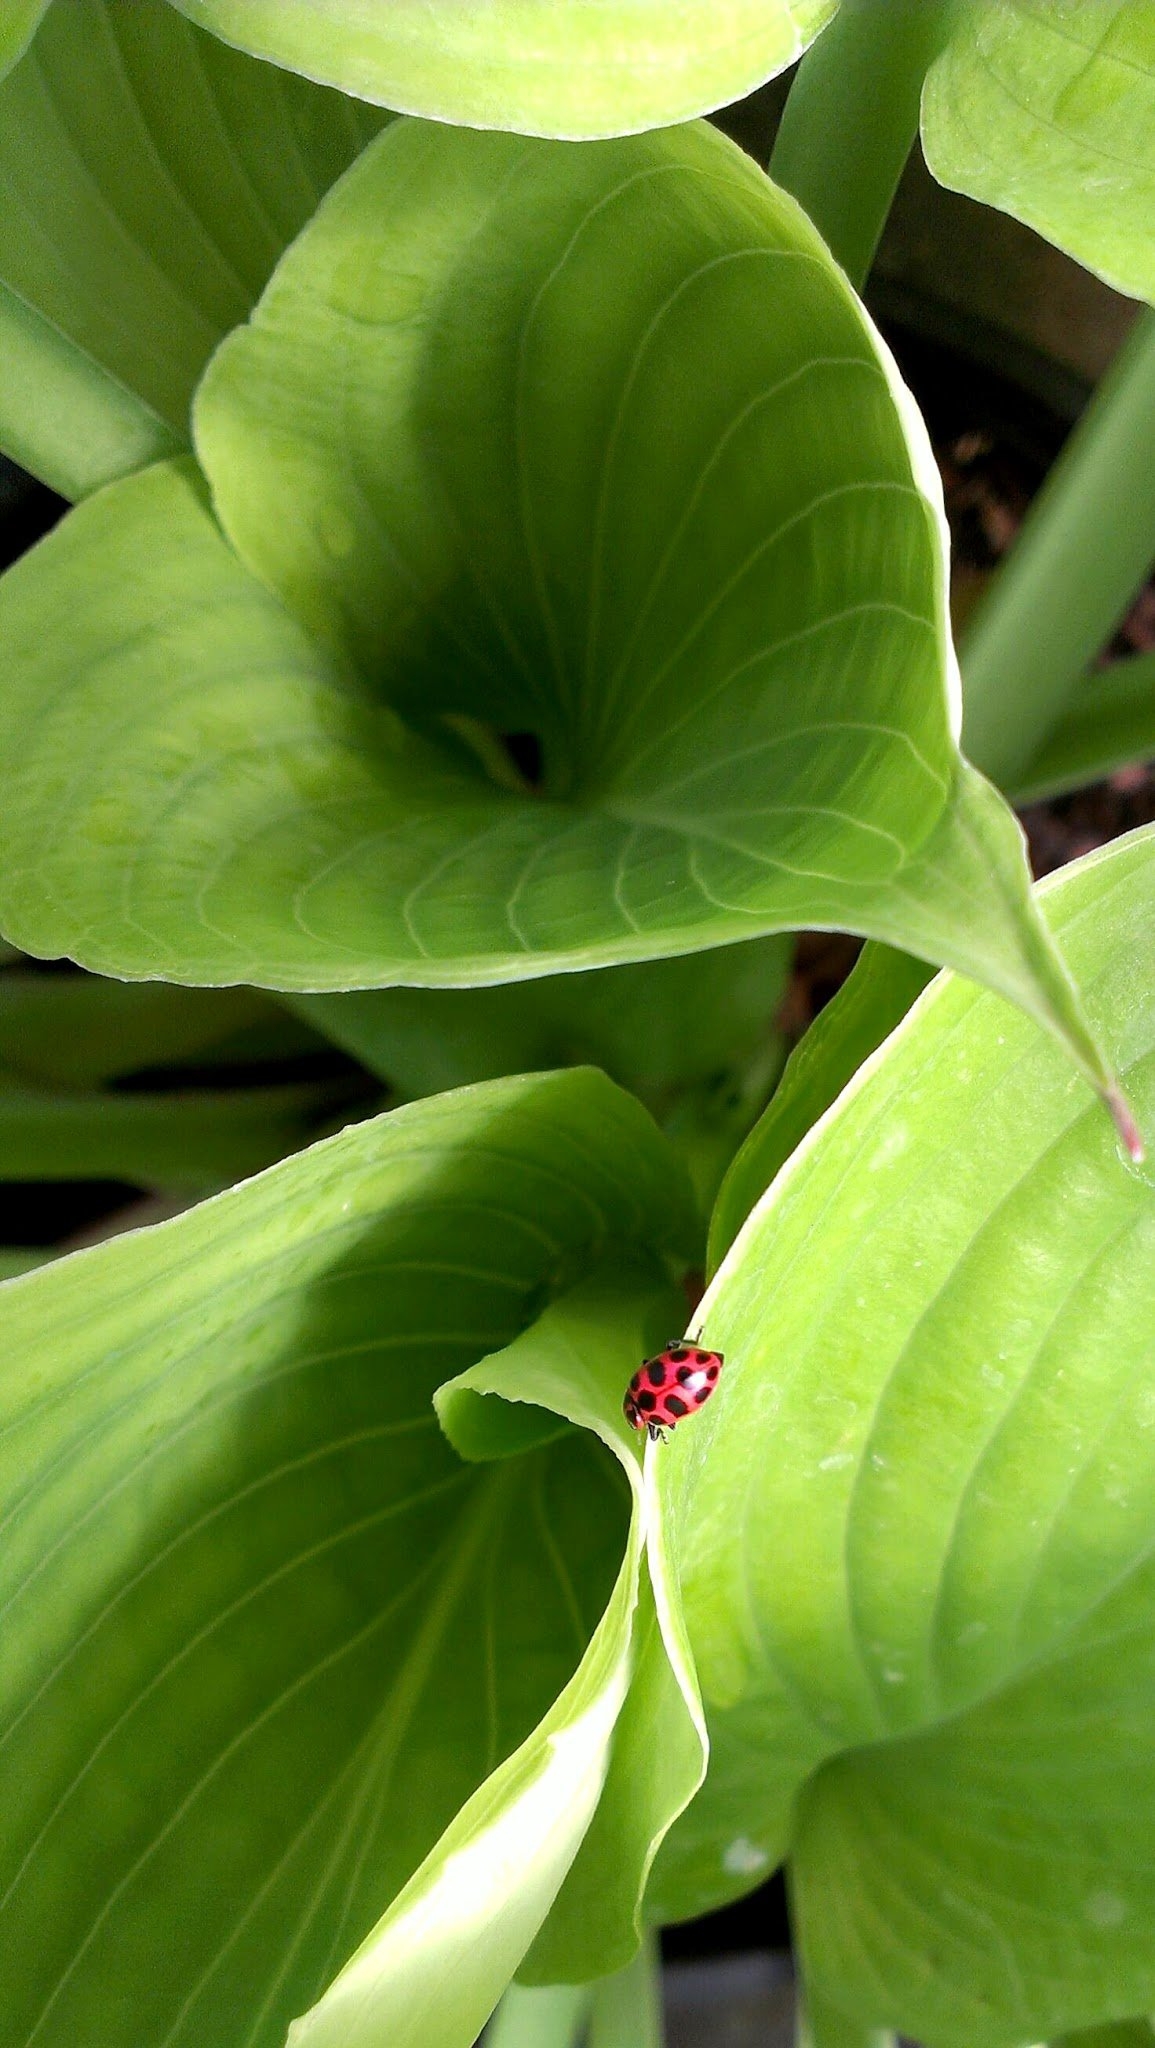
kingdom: Animalia
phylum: Arthropoda
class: Insecta
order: Coleoptera
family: Coccinellidae
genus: Coleomegilla
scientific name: Coleomegilla maculata
